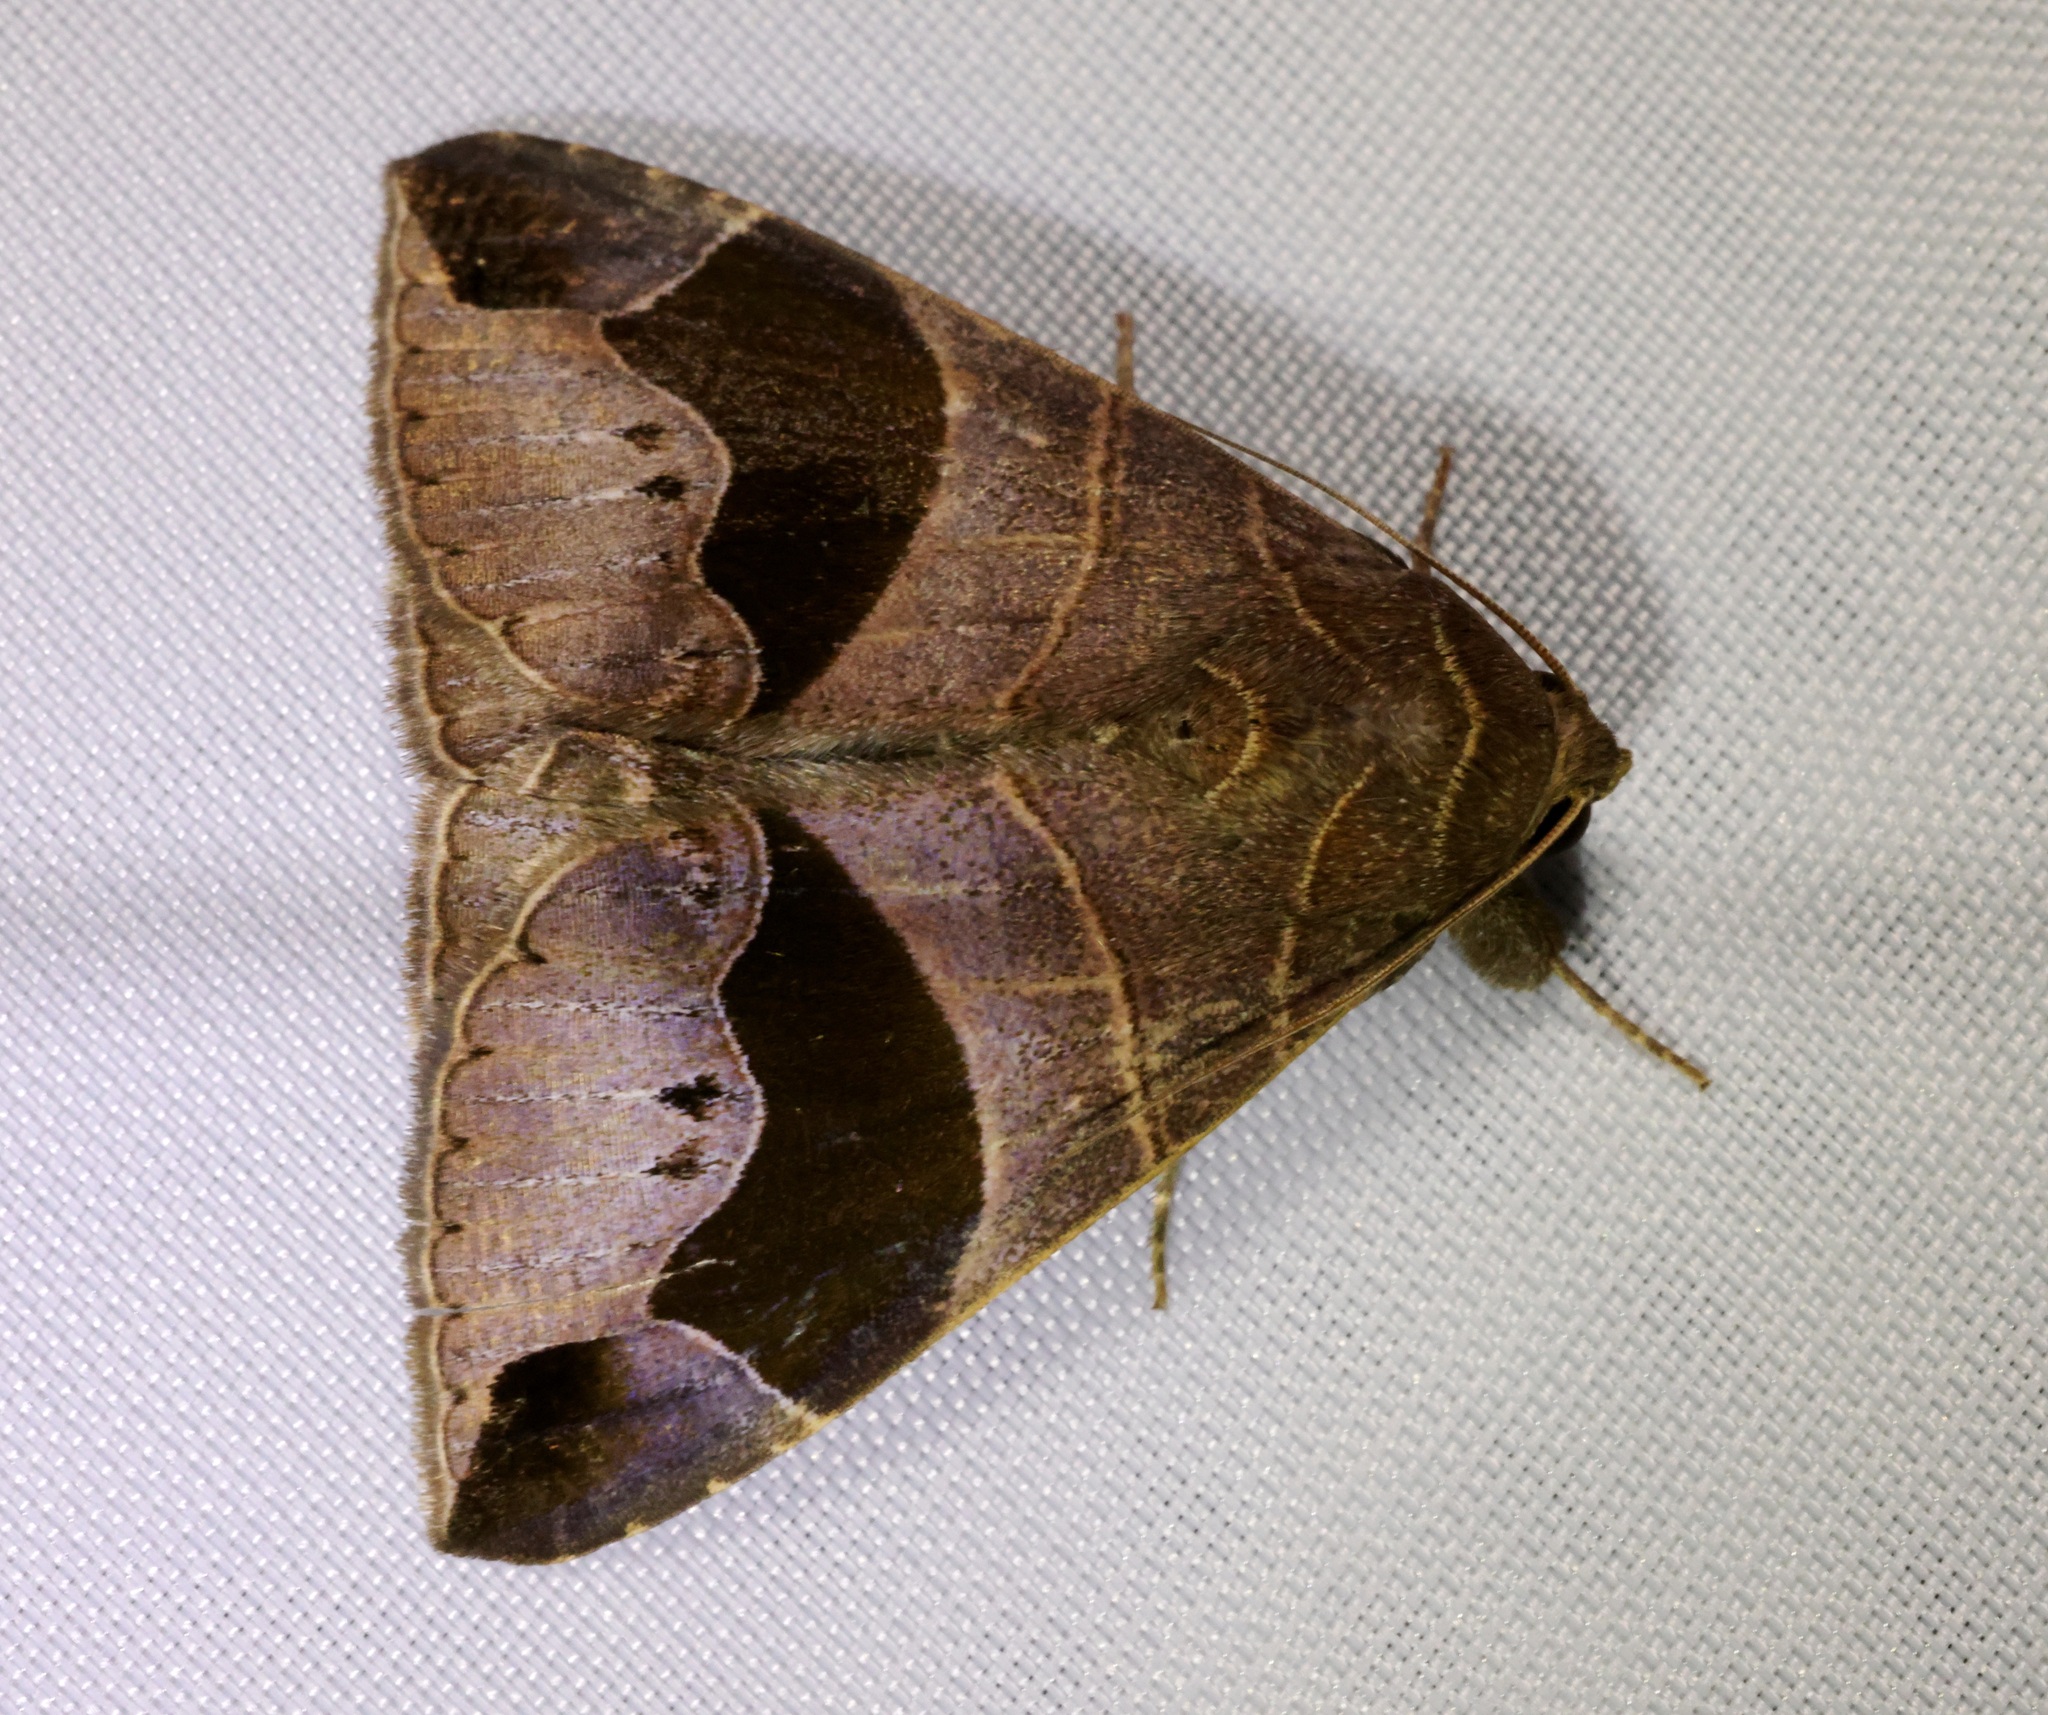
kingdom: Animalia
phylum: Arthropoda
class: Insecta
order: Lepidoptera
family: Erebidae
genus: Bastilla
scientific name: Bastilla joviana
